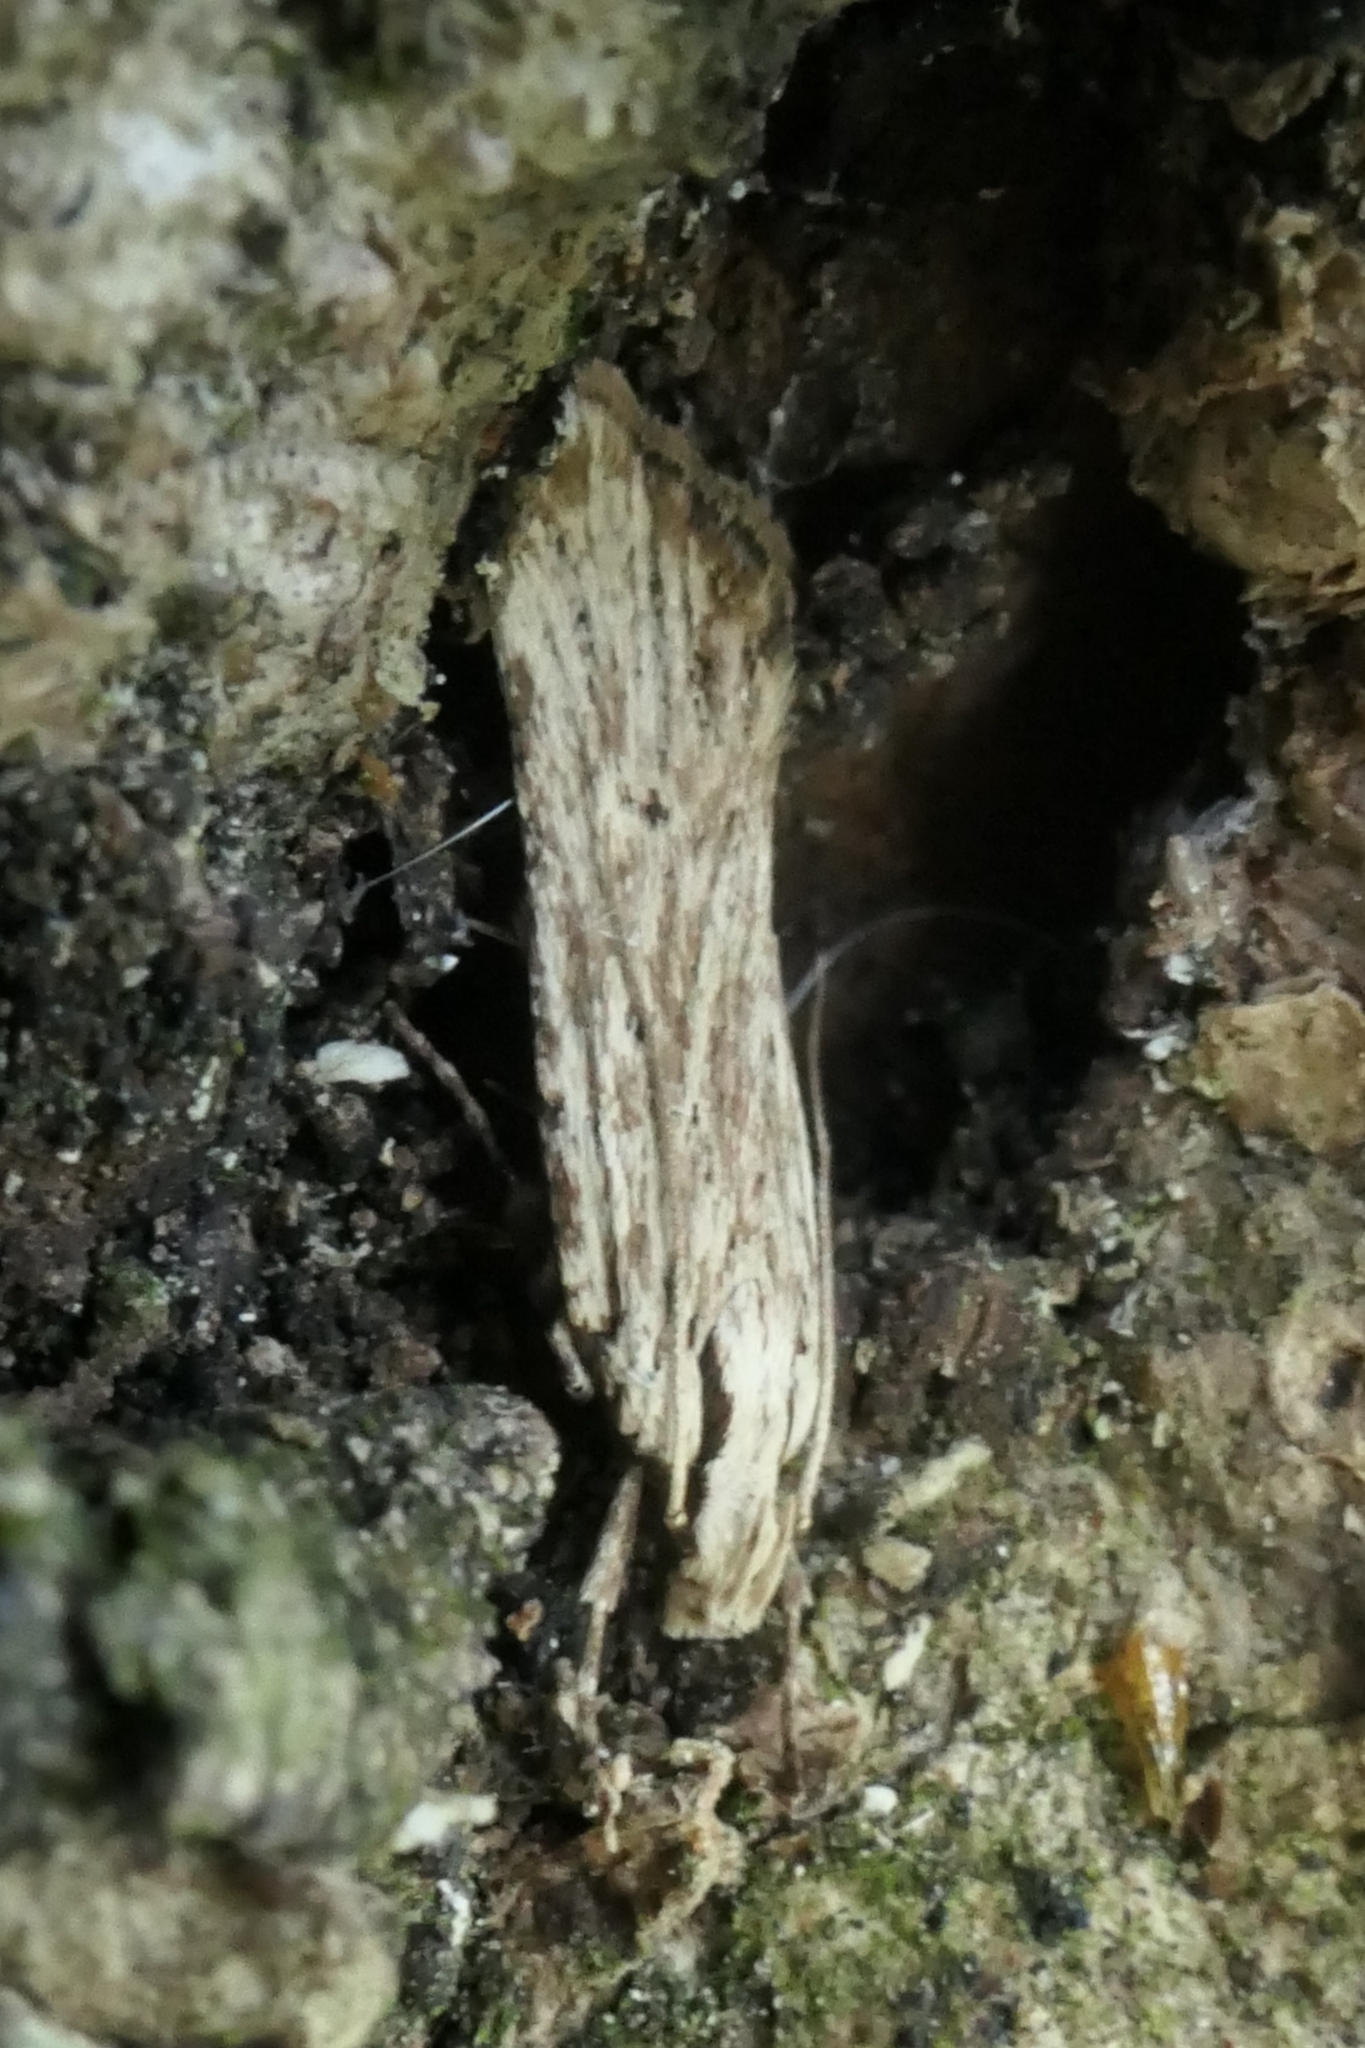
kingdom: Animalia
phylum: Arthropoda
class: Insecta
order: Lepidoptera
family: Gelechiidae
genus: Anisoplaca
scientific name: Anisoplaca ptyoptera
